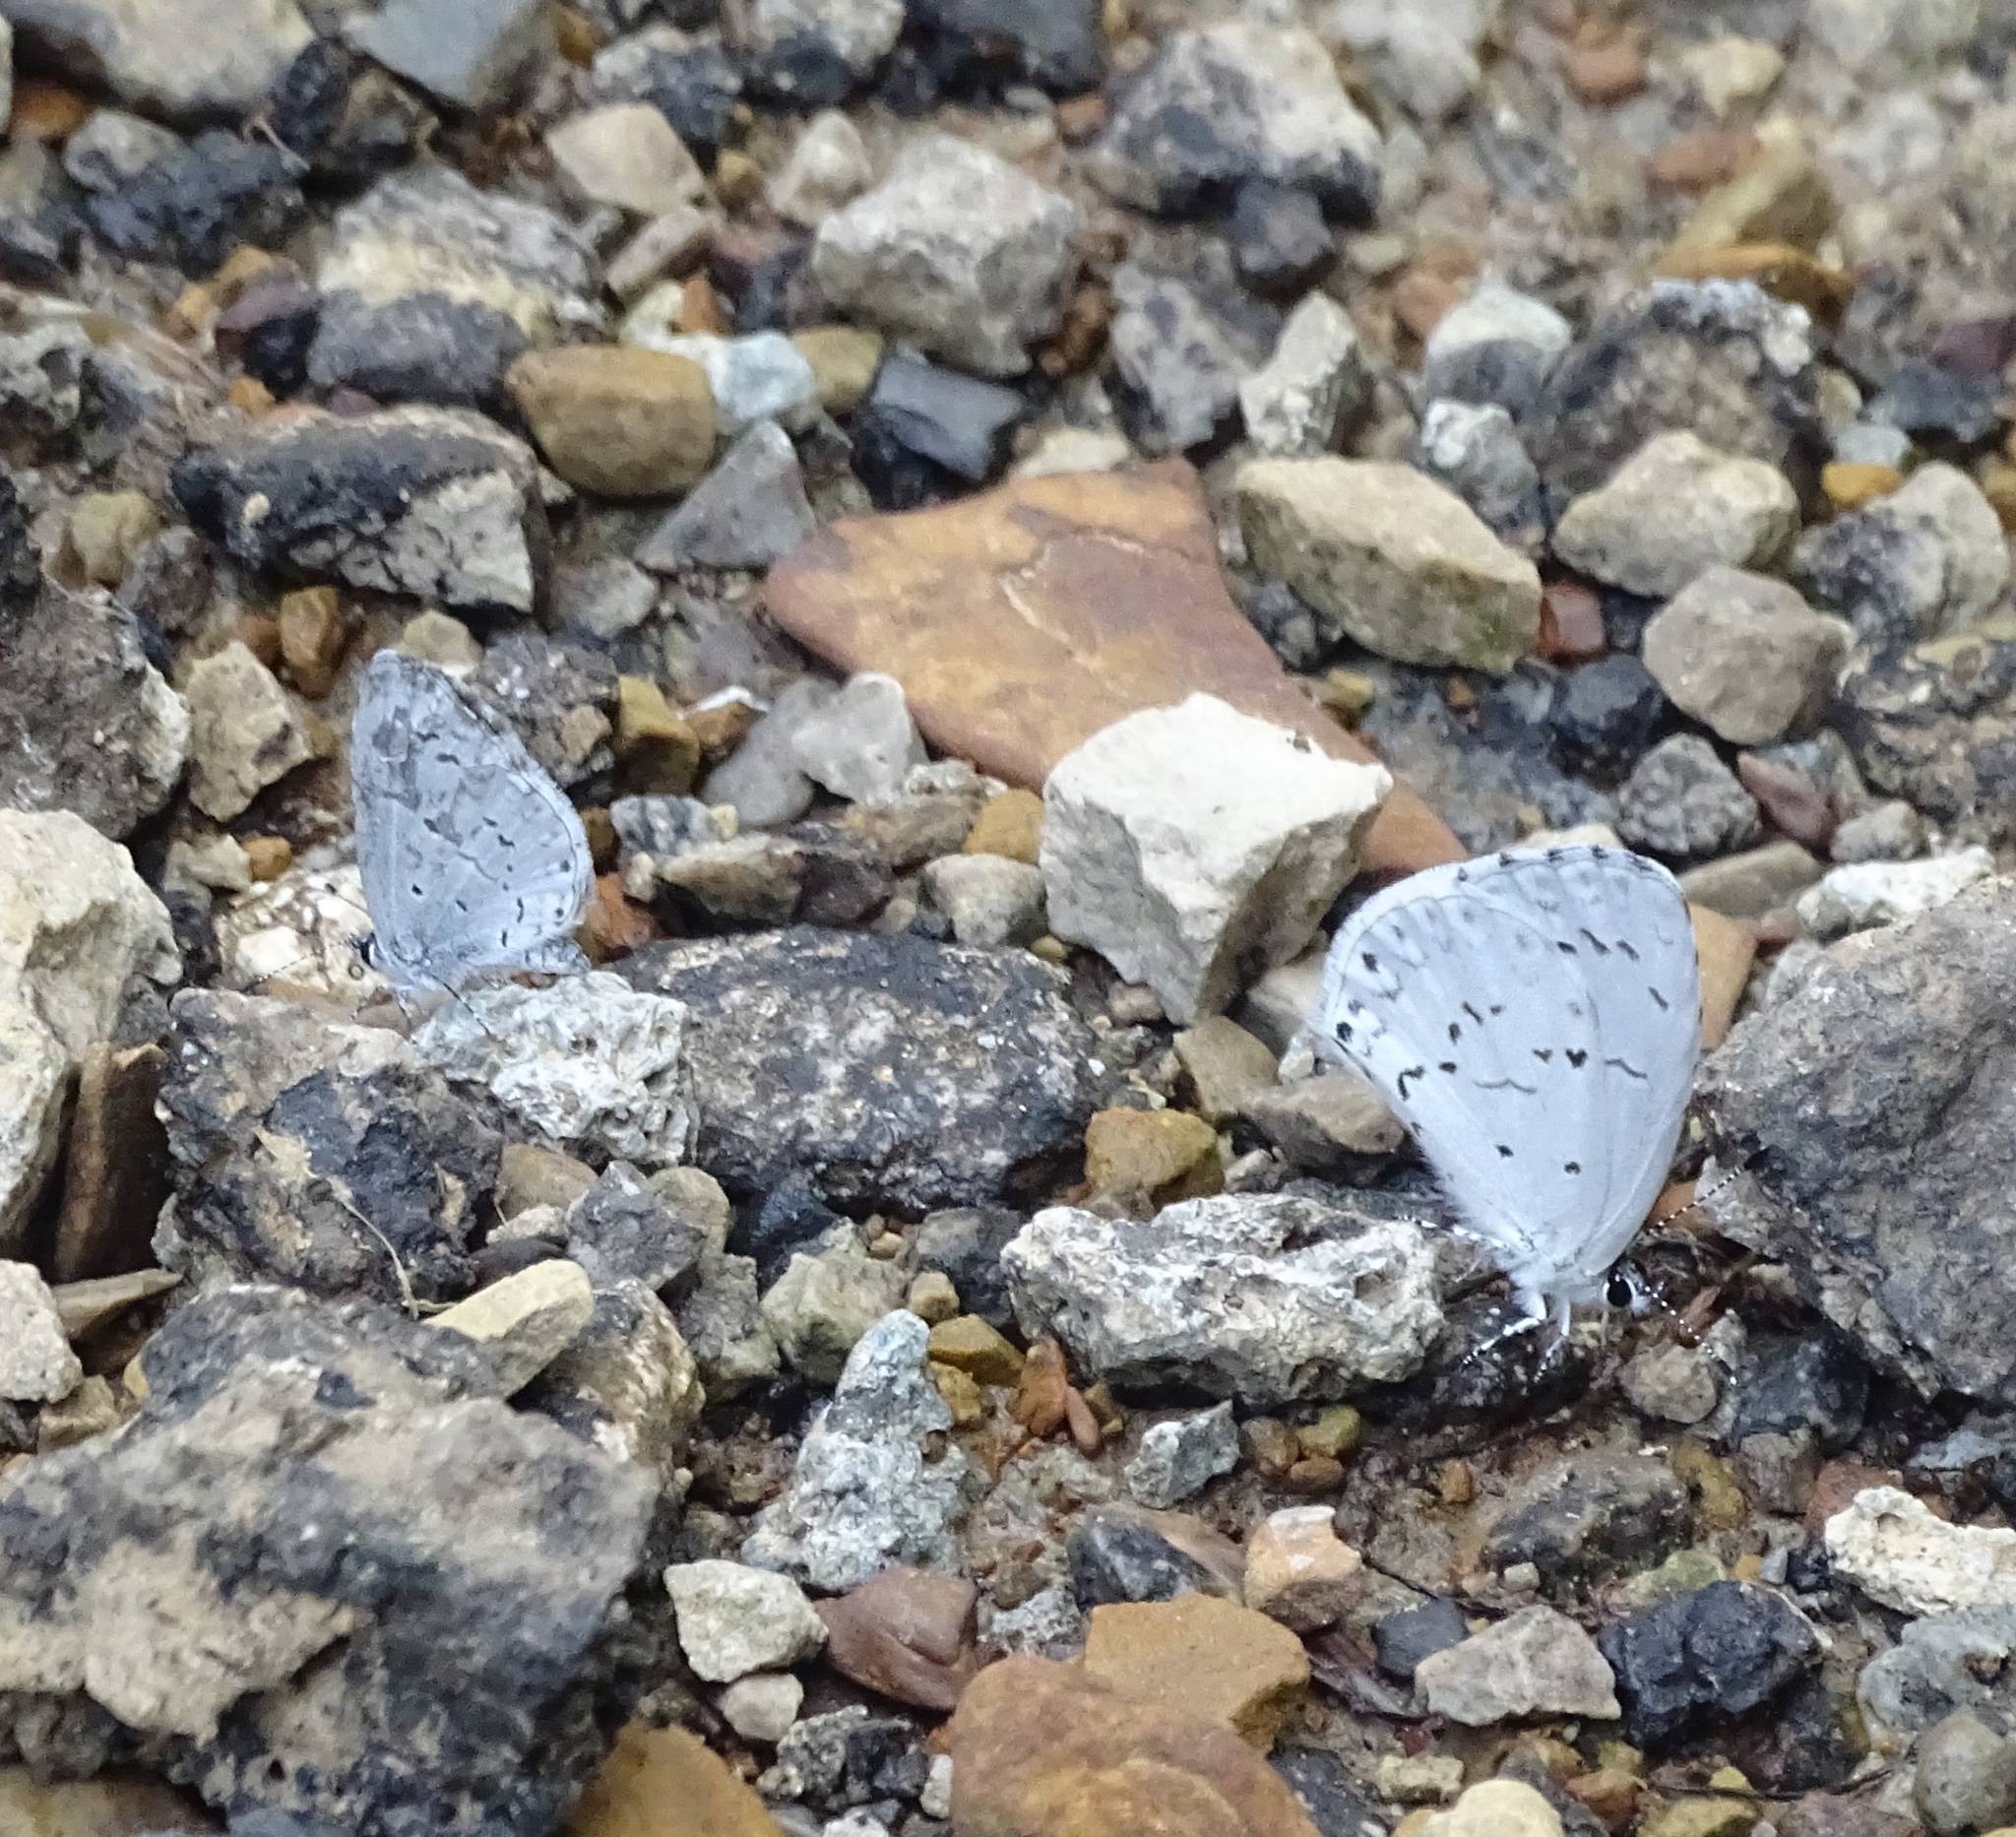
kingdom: Animalia
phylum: Arthropoda
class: Insecta
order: Lepidoptera
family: Lycaenidae
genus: Cyaniris
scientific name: Cyaniris neglecta
